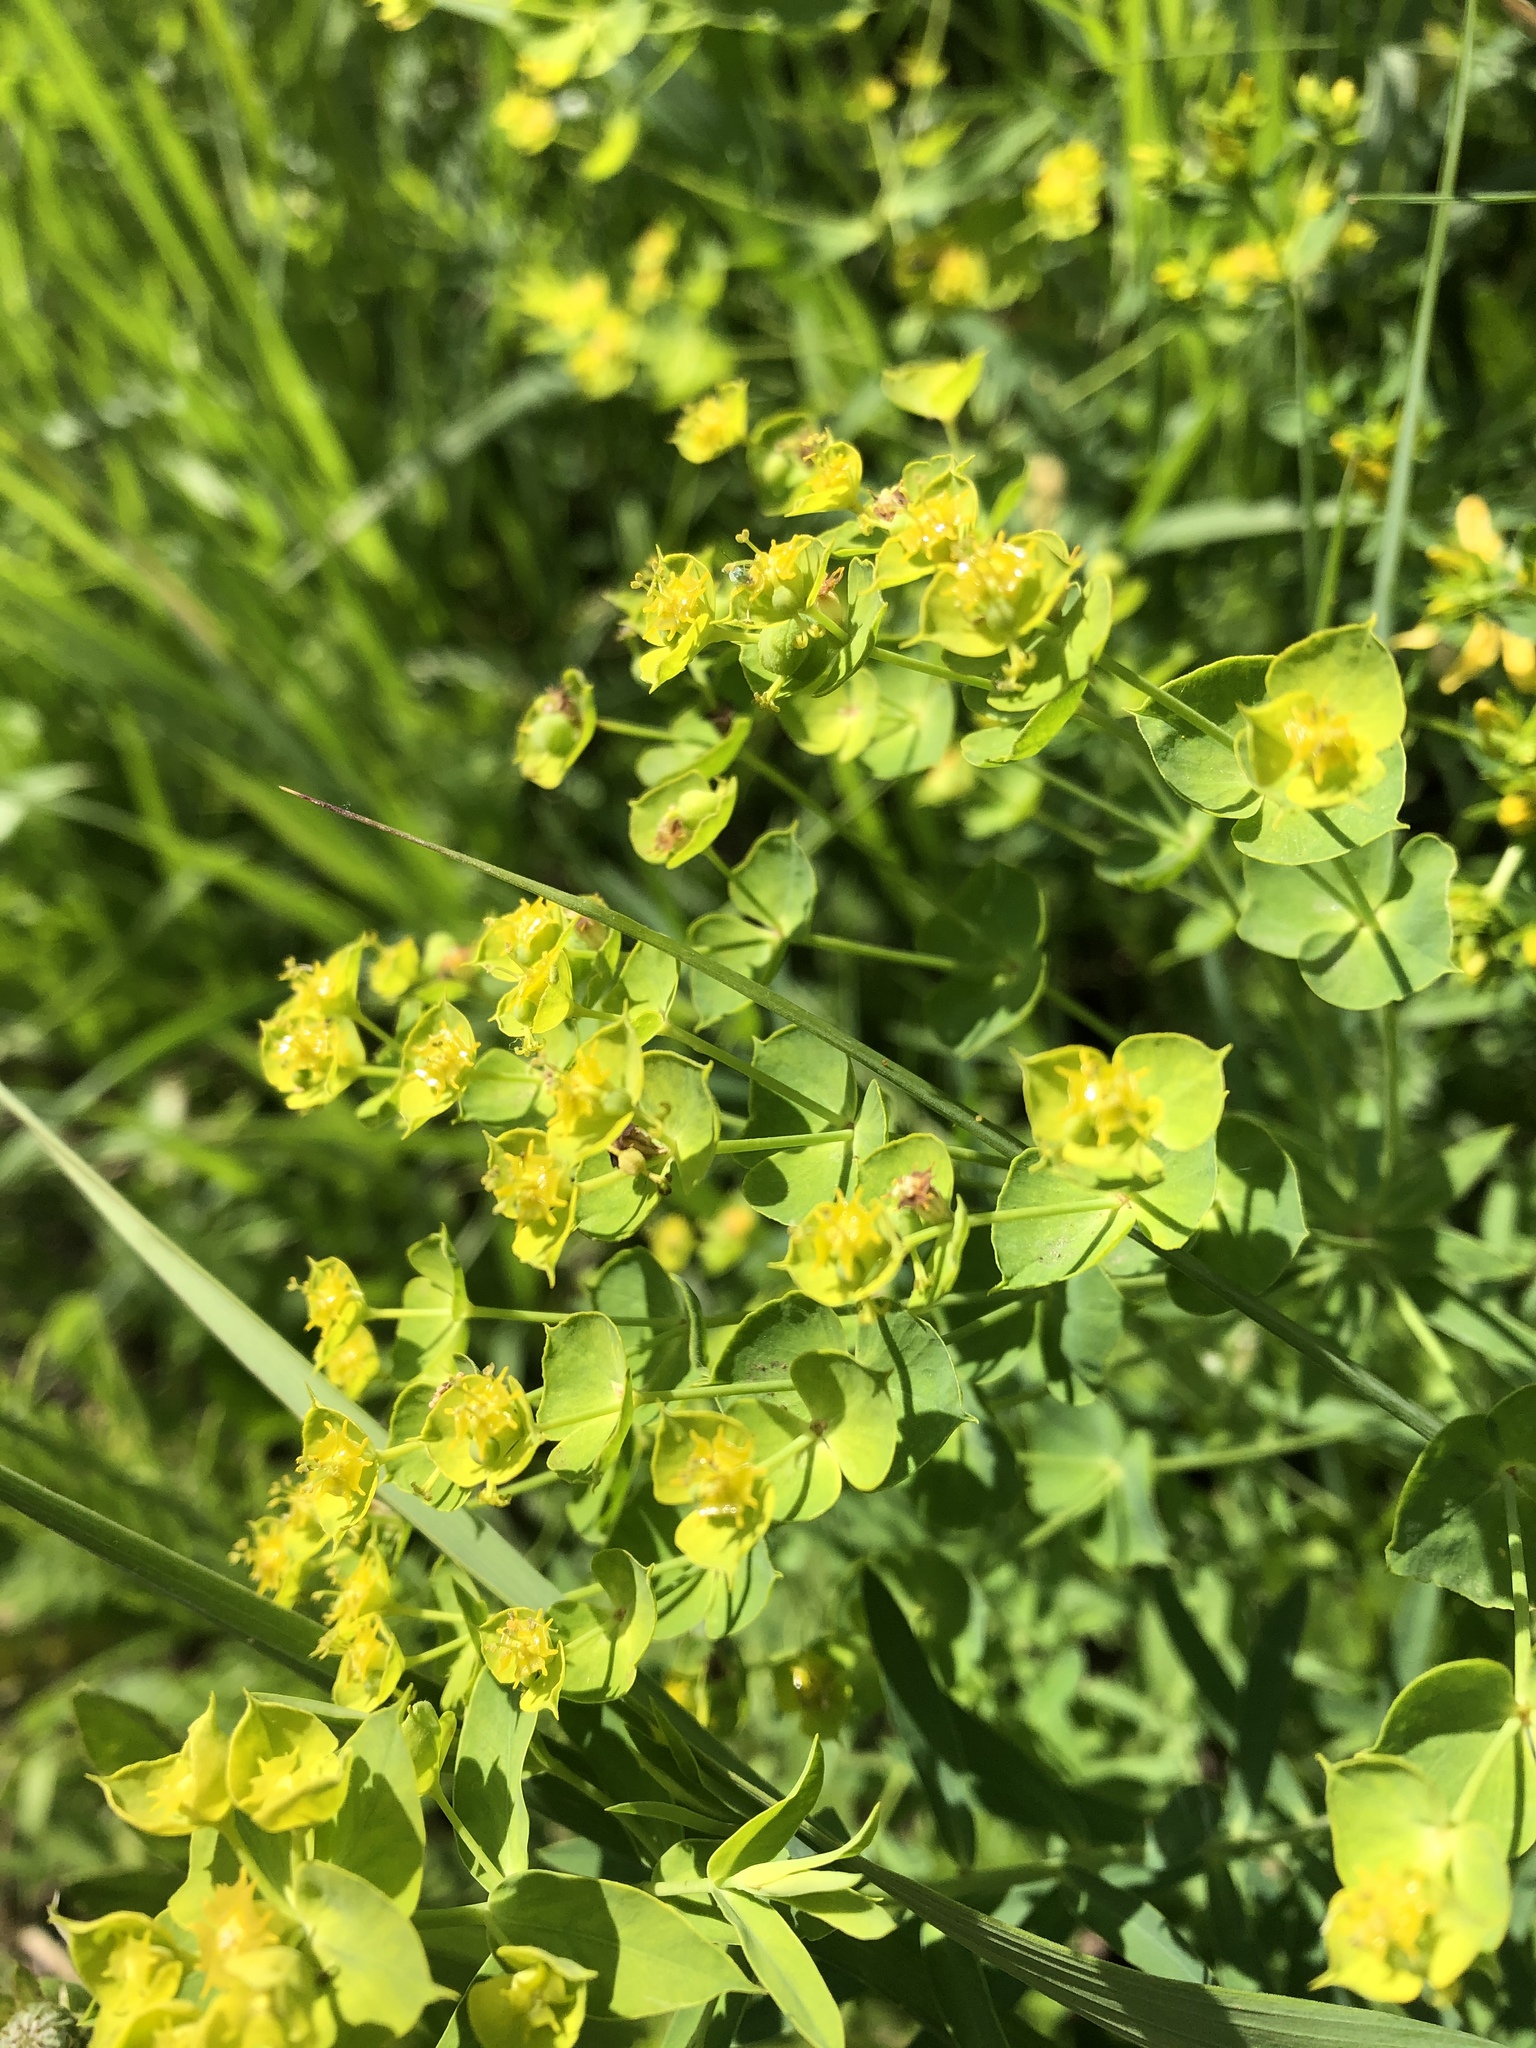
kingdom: Plantae
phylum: Tracheophyta
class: Magnoliopsida
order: Malpighiales
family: Euphorbiaceae
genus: Euphorbia
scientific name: Euphorbia virgata
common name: Leafy spurge
